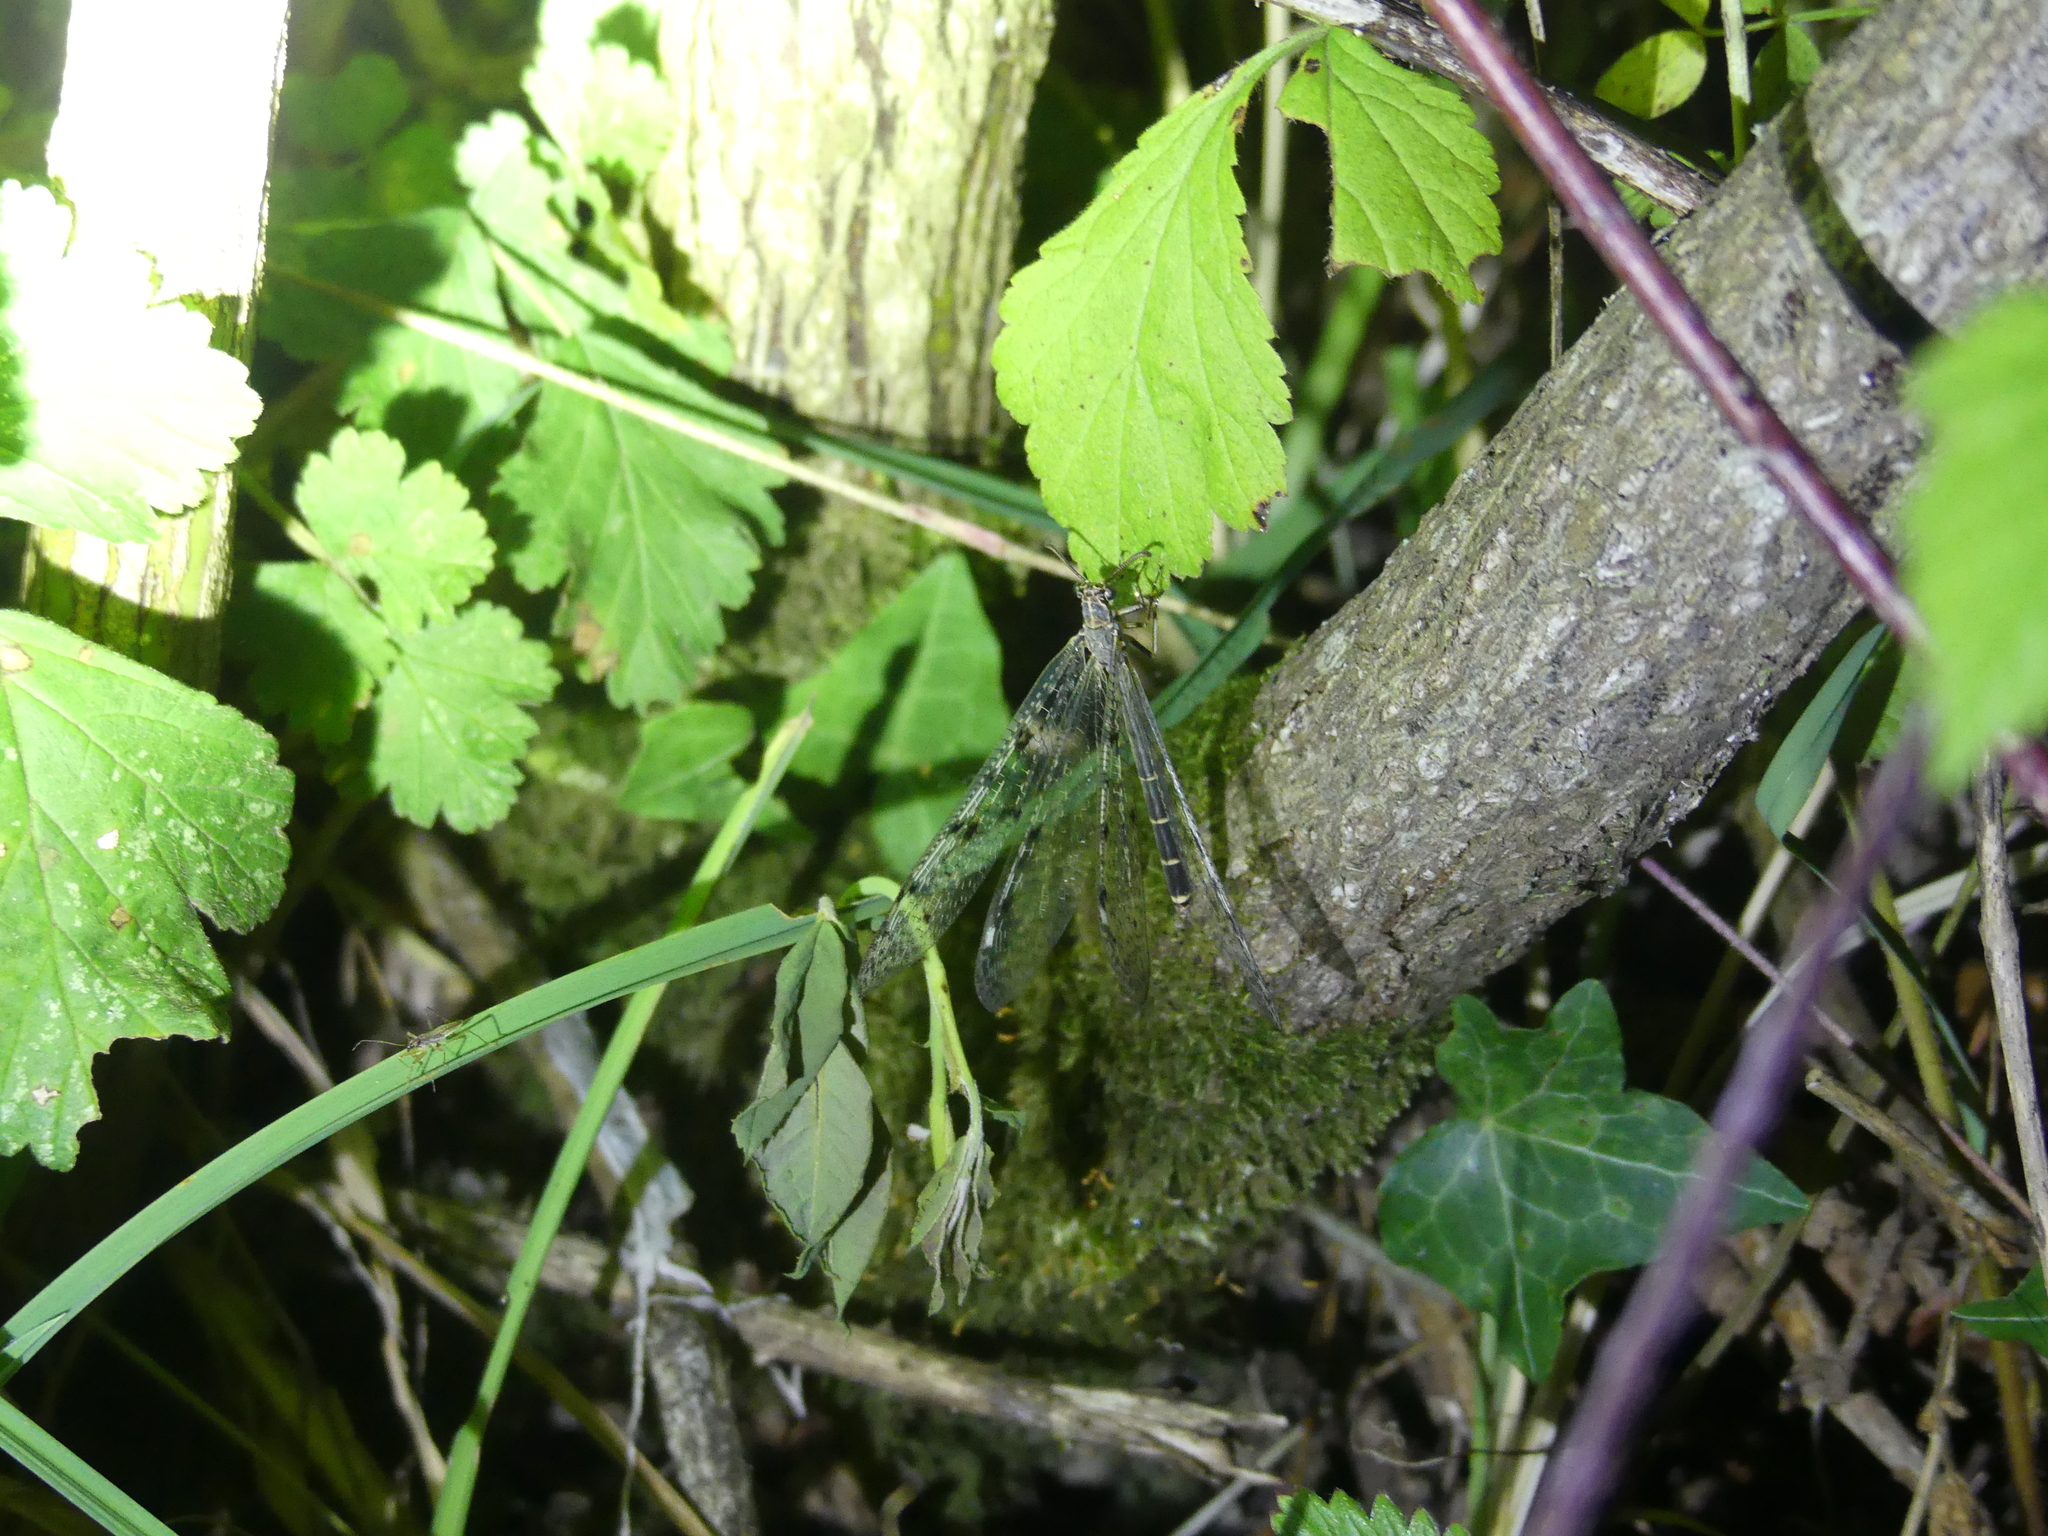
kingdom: Animalia
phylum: Arthropoda
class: Insecta
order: Neuroptera
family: Myrmeleontidae
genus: Euroleon
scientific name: Euroleon nostras
